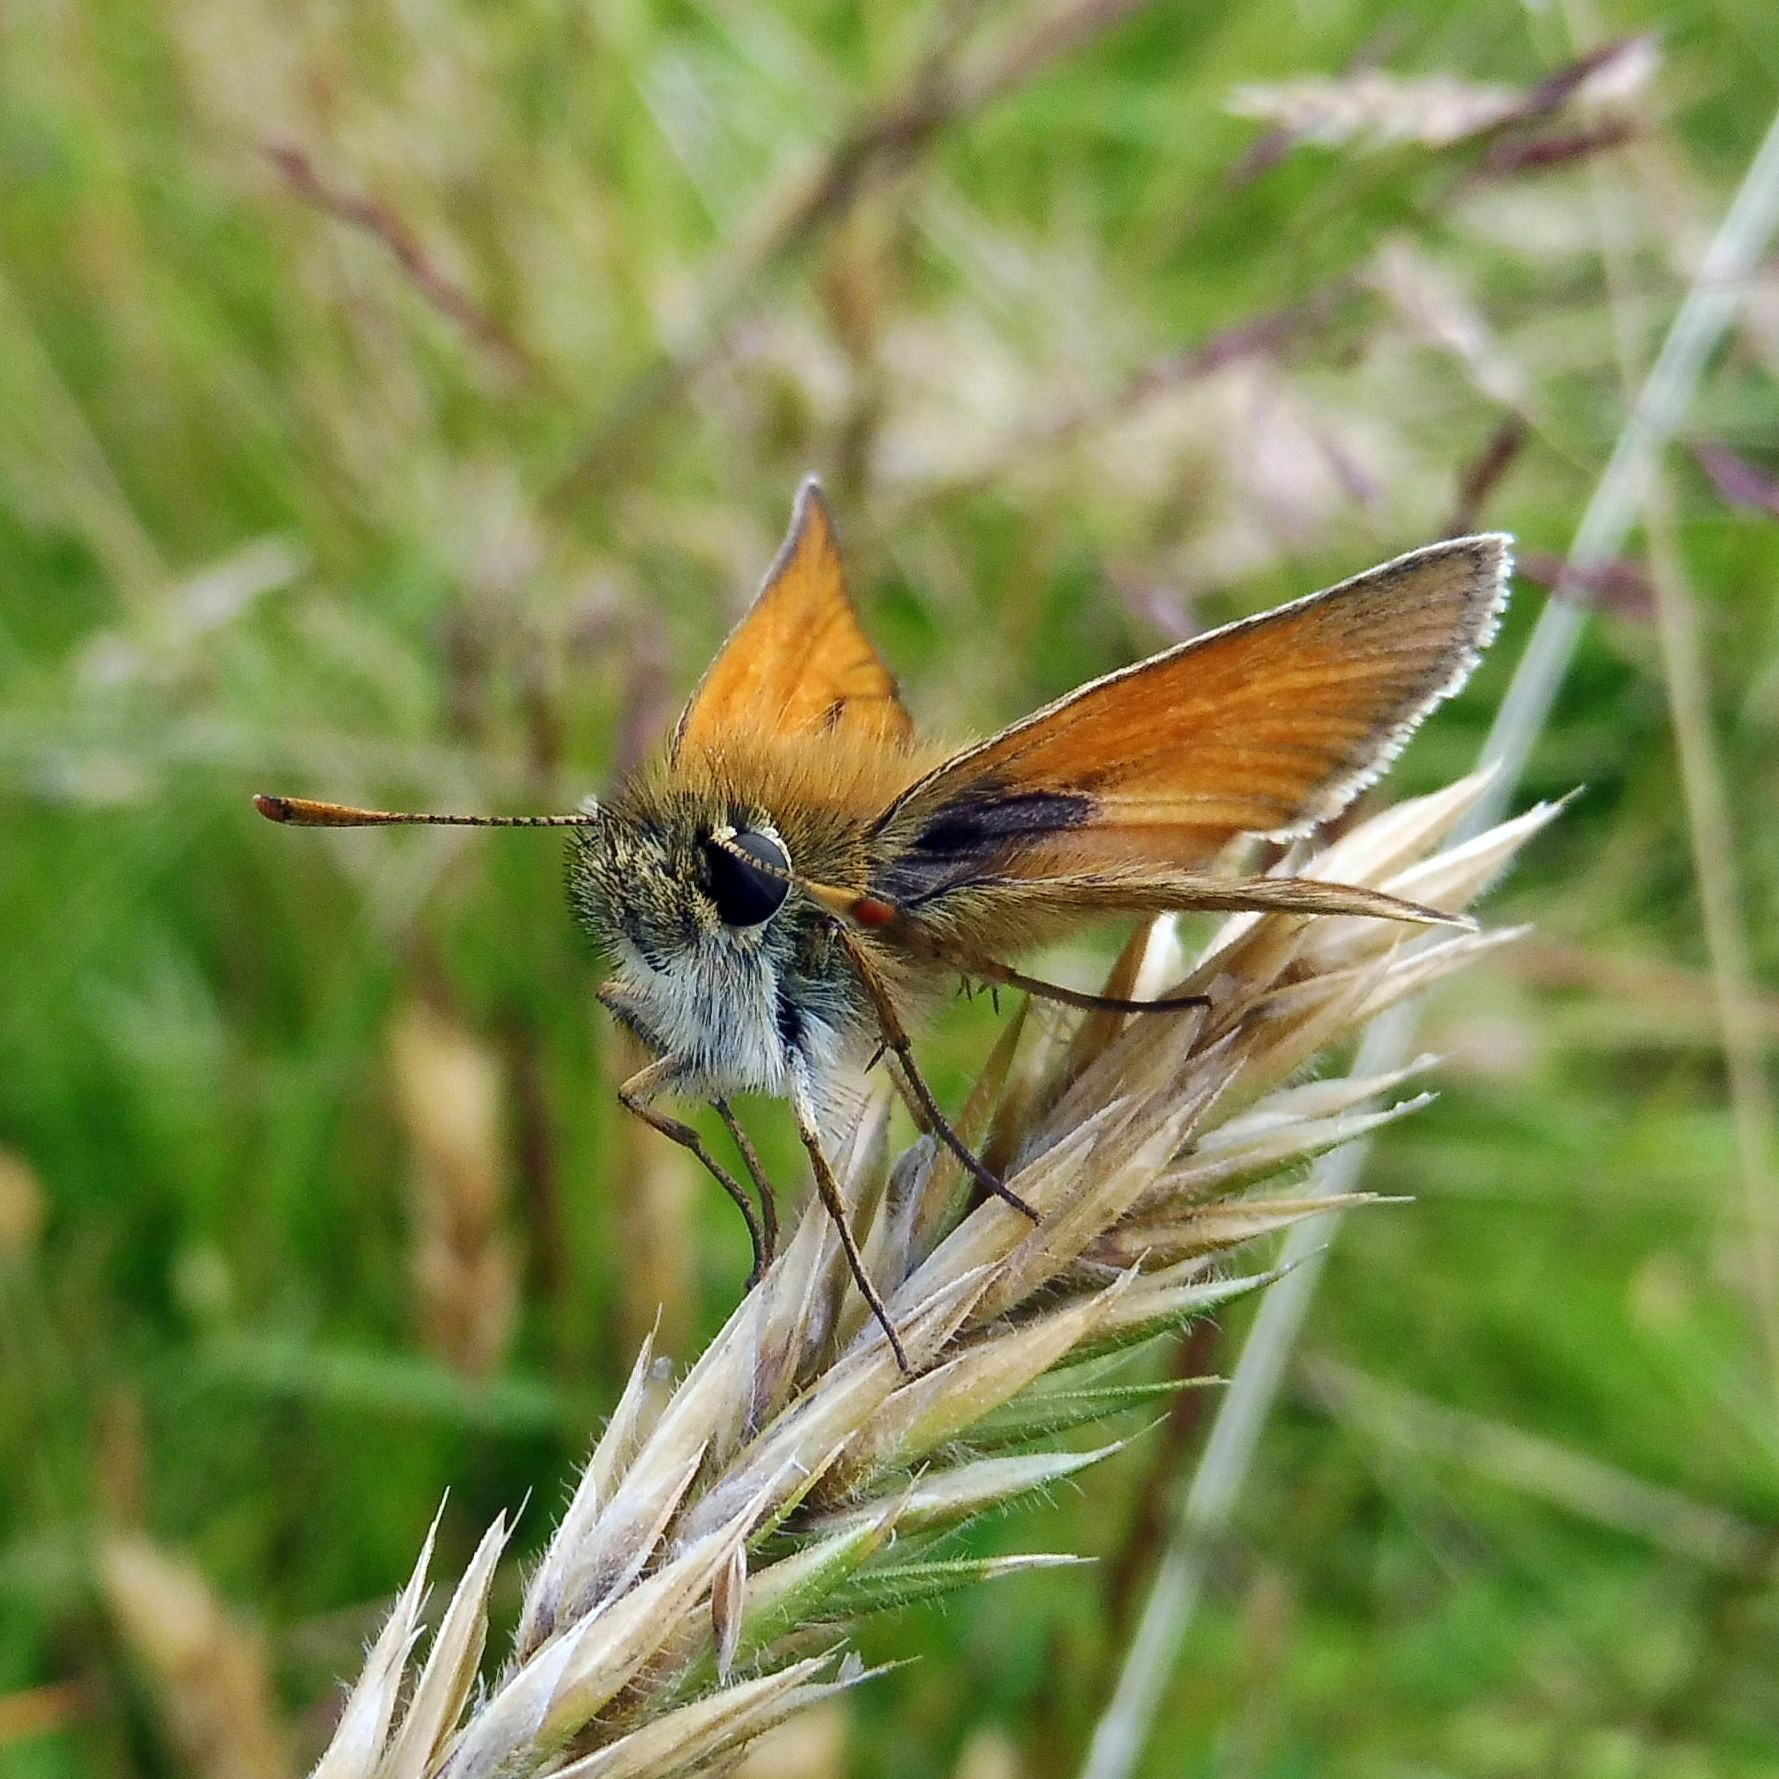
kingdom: Animalia
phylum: Arthropoda
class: Insecta
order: Lepidoptera
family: Hesperiidae
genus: Thymelicus
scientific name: Thymelicus sylvestris
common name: Small skipper
